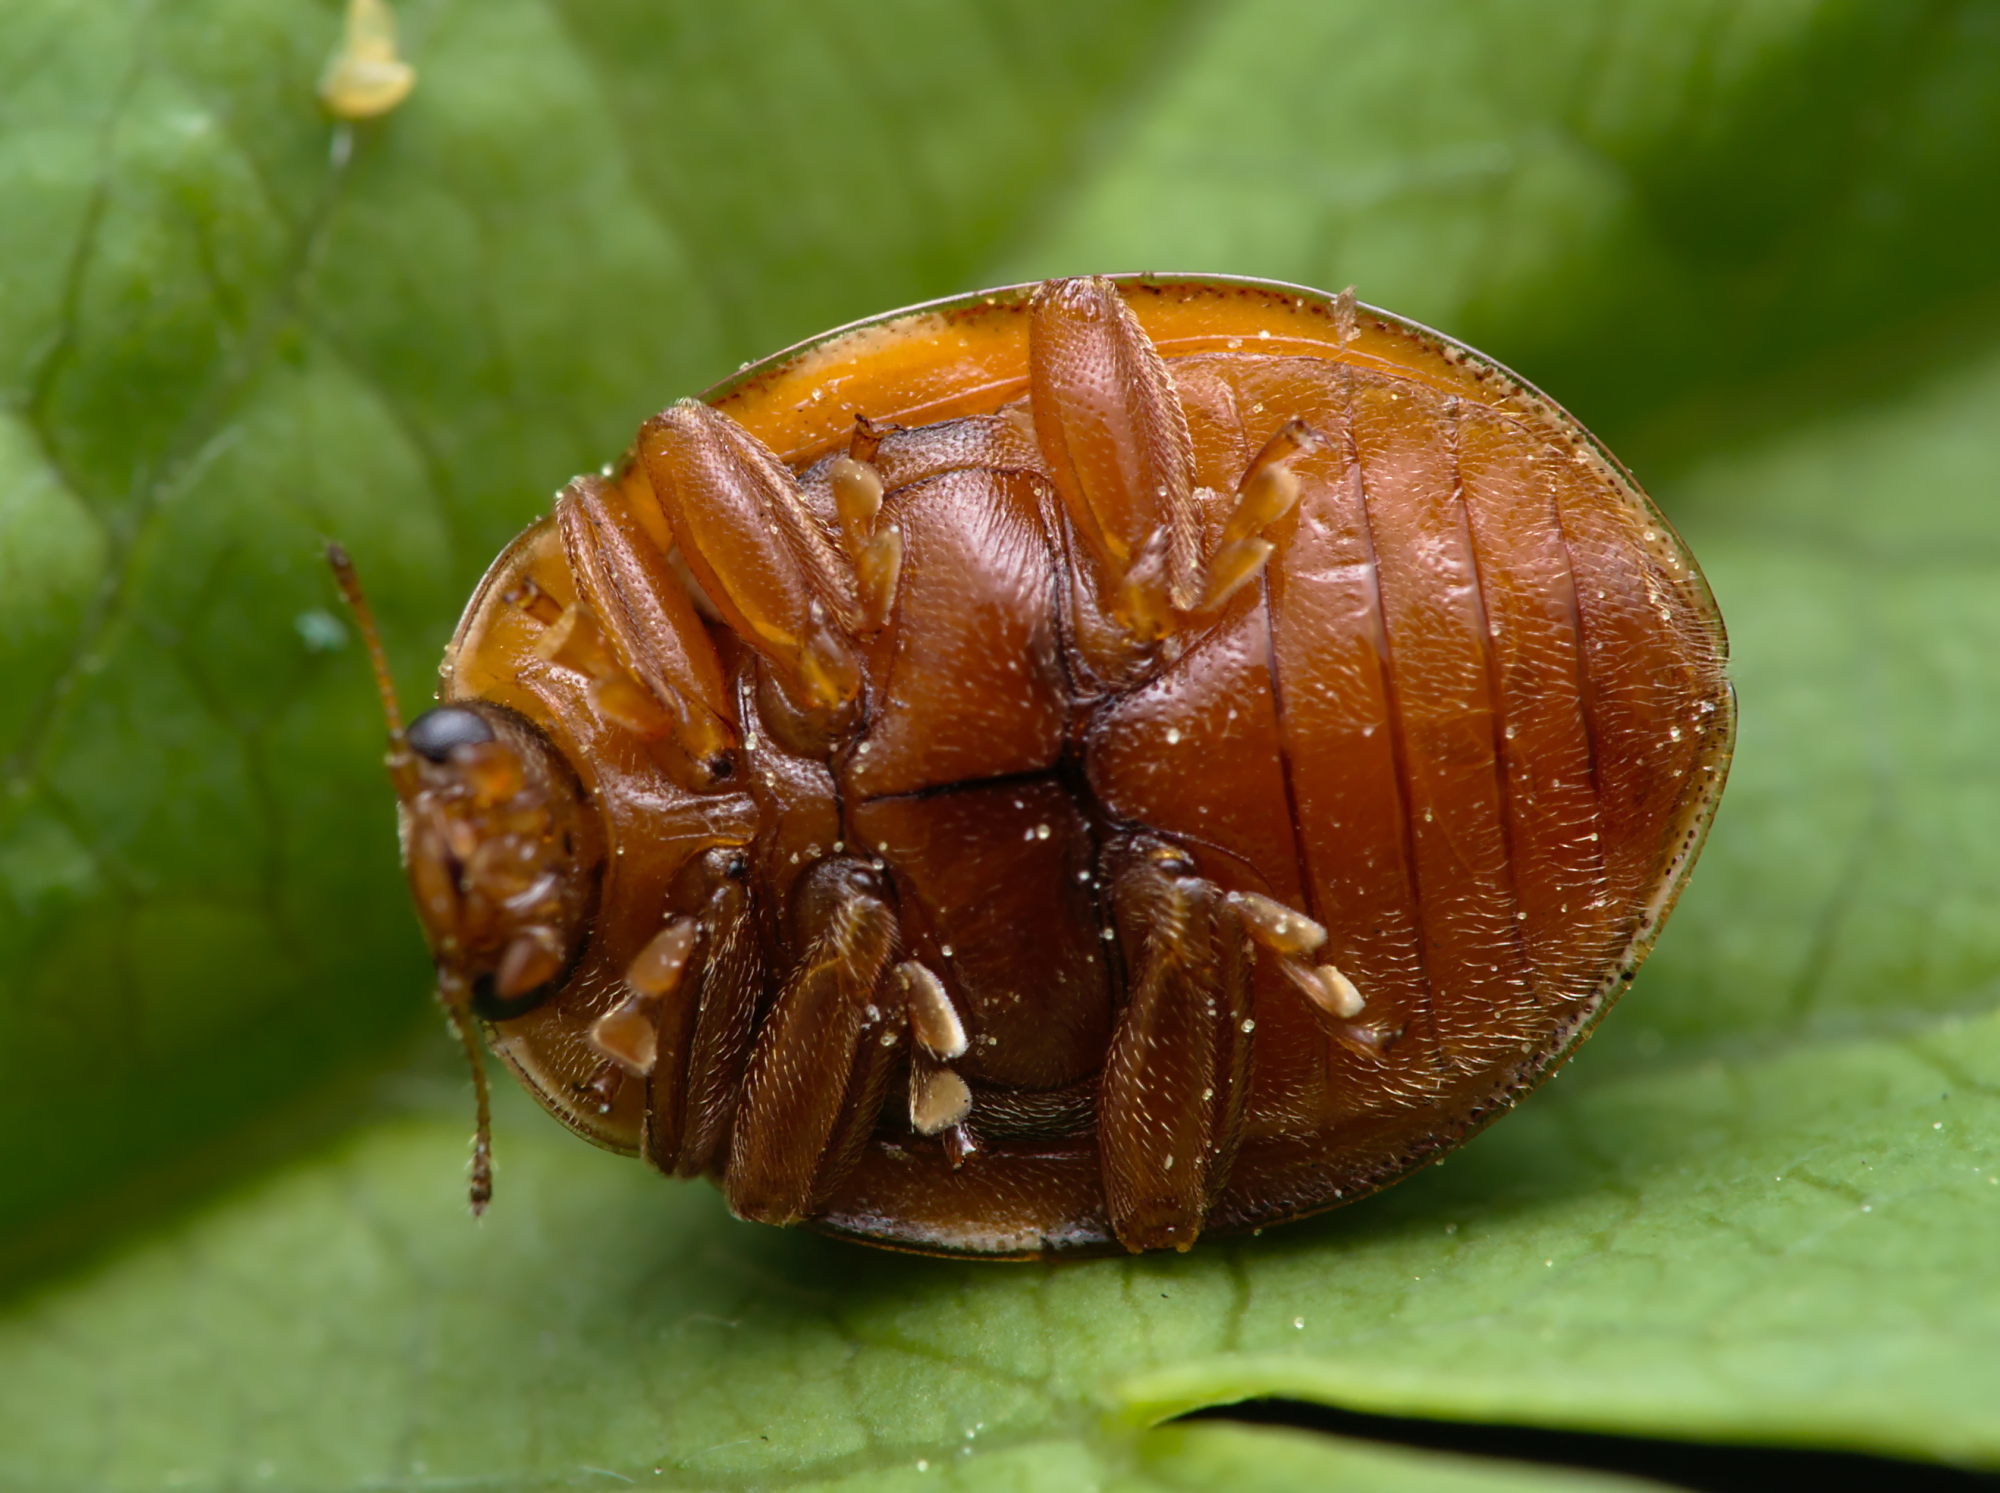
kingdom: Animalia
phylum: Arthropoda
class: Insecta
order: Coleoptera
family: Coccinellidae
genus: Calvia
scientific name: Calvia quatuordecimguttata
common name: Cream-spot ladybird
